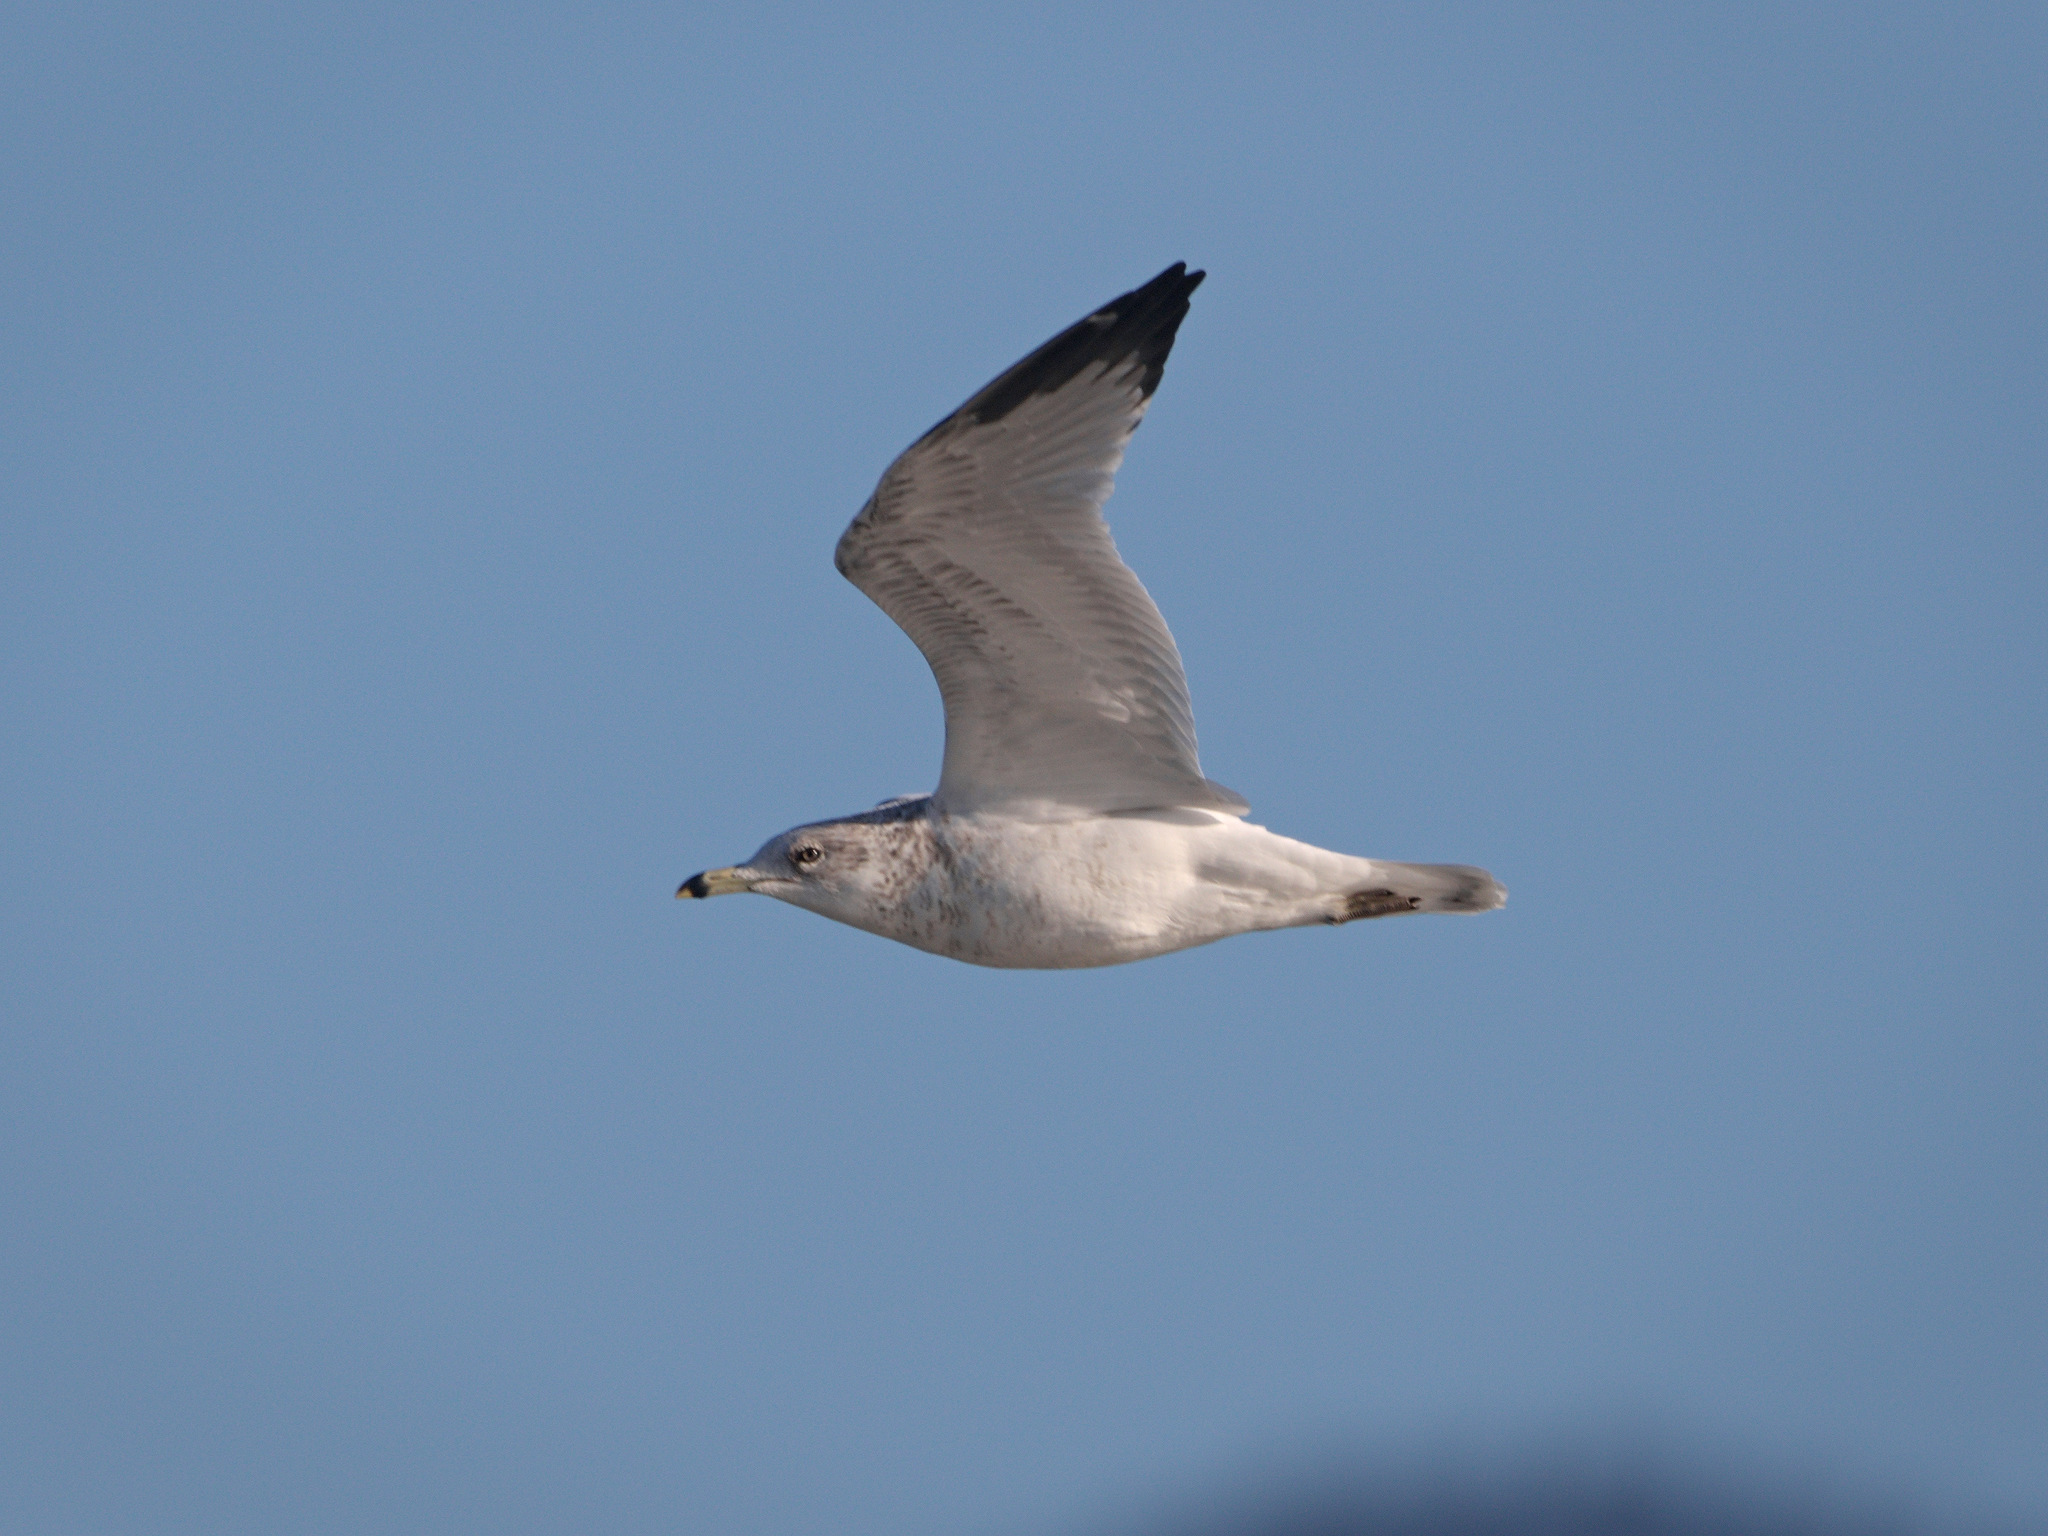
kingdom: Animalia
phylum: Chordata
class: Aves
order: Charadriiformes
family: Laridae
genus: Larus
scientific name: Larus delawarensis
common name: Ring-billed gull
